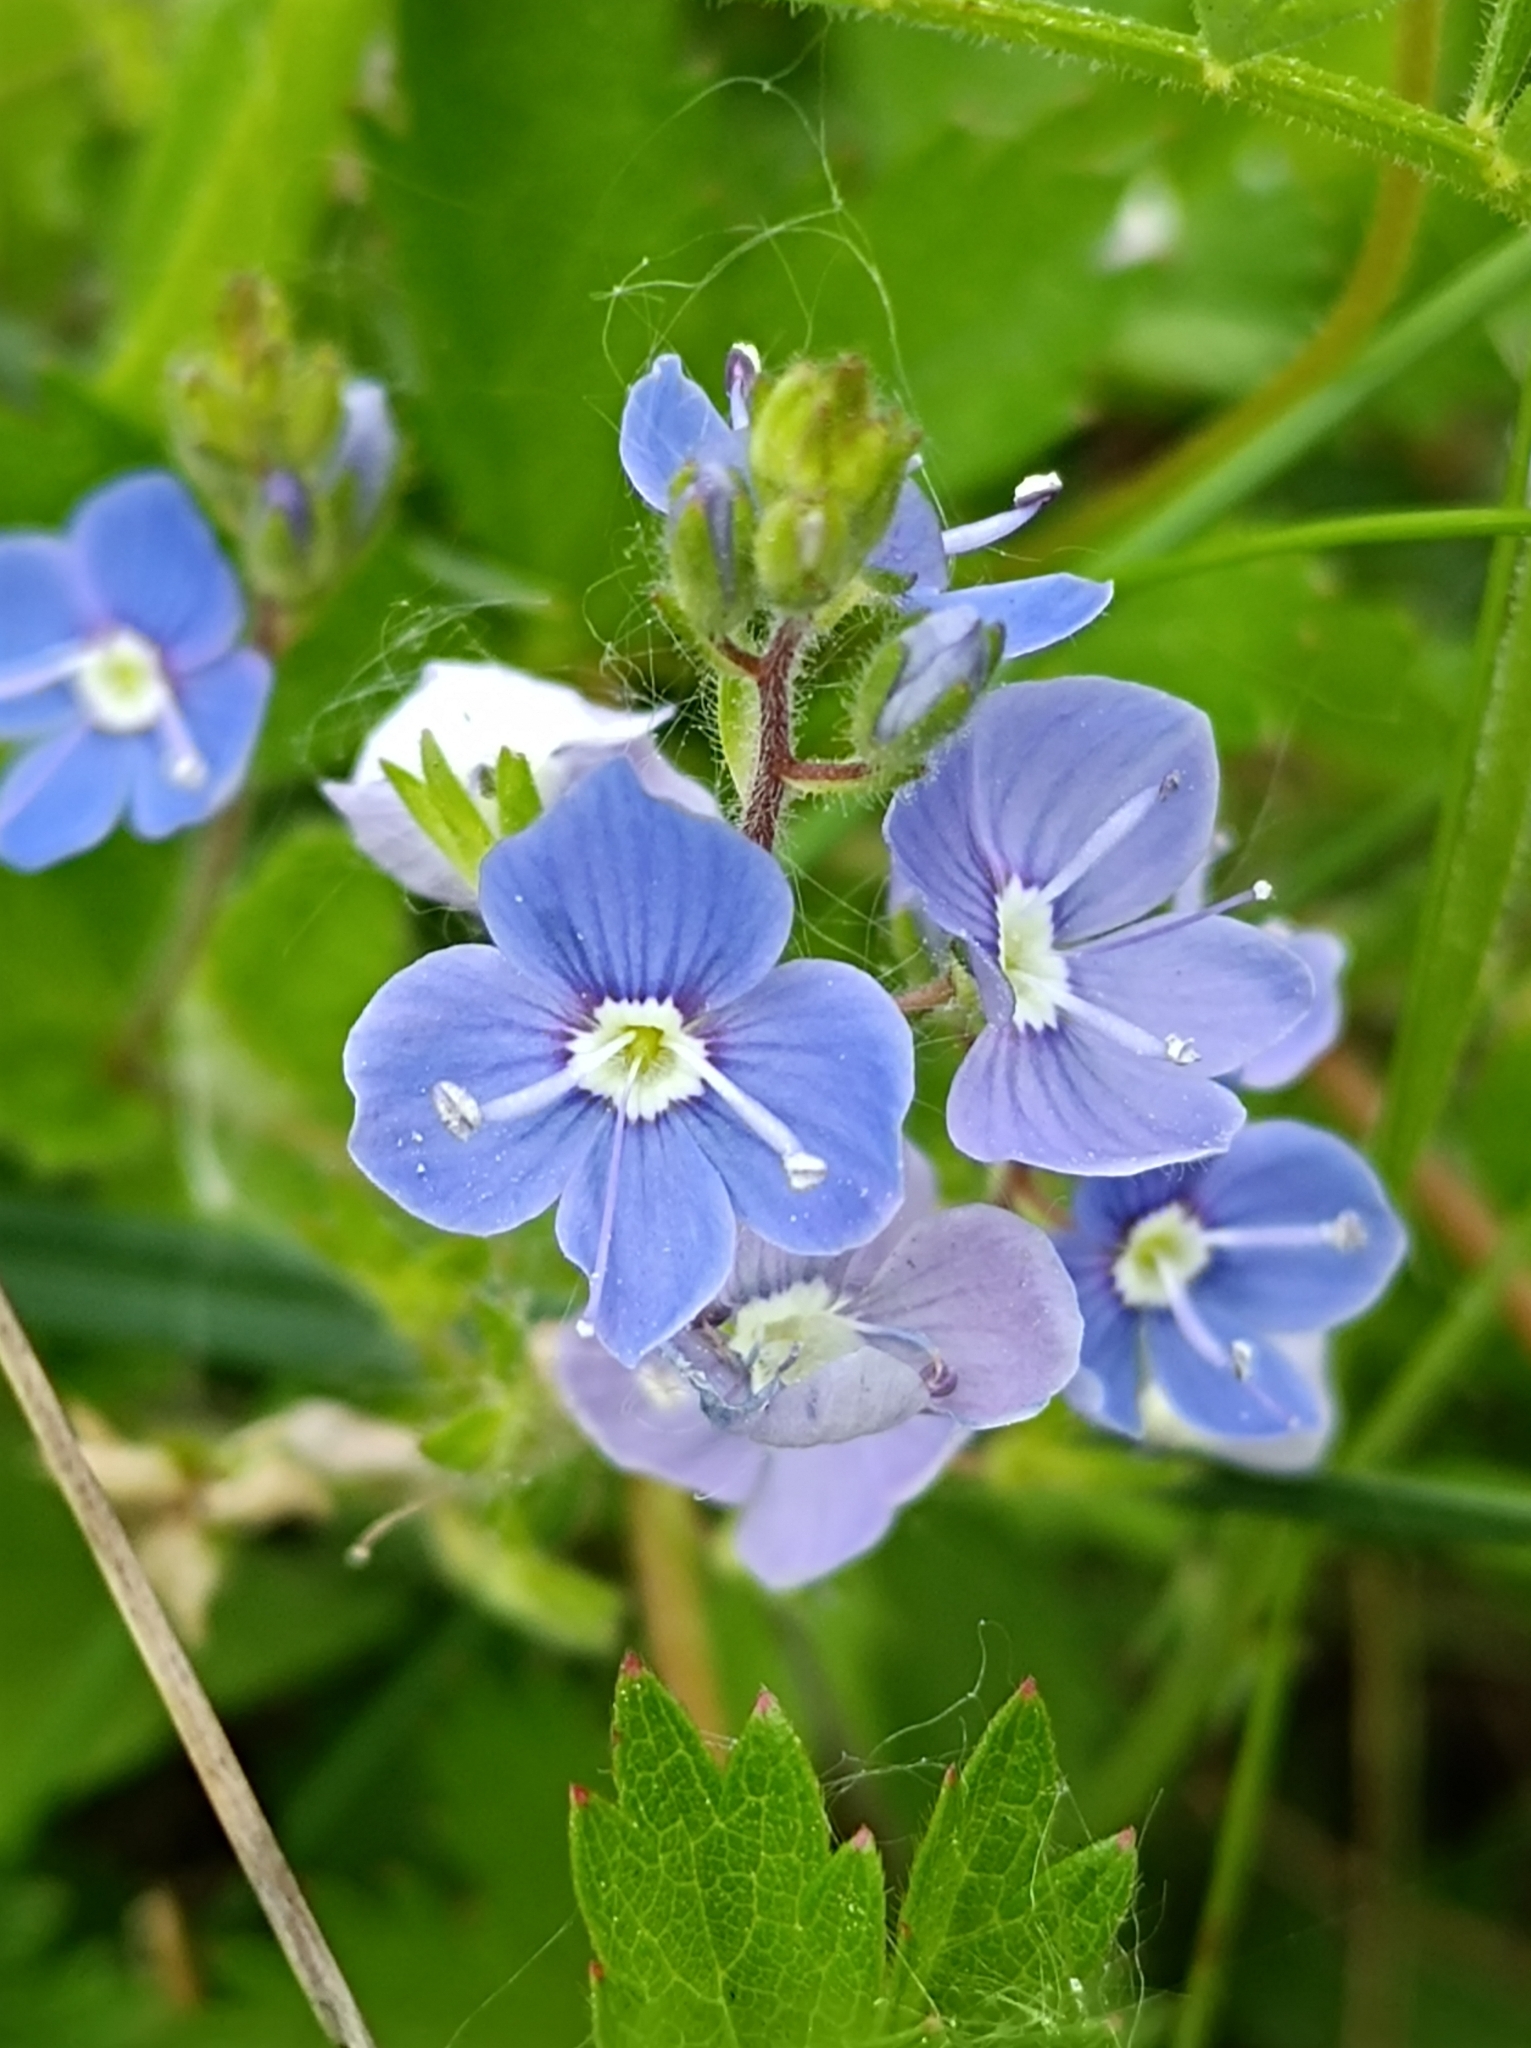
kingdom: Plantae
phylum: Tracheophyta
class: Magnoliopsida
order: Lamiales
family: Plantaginaceae
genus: Veronica
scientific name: Veronica chamaedrys
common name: Germander speedwell
